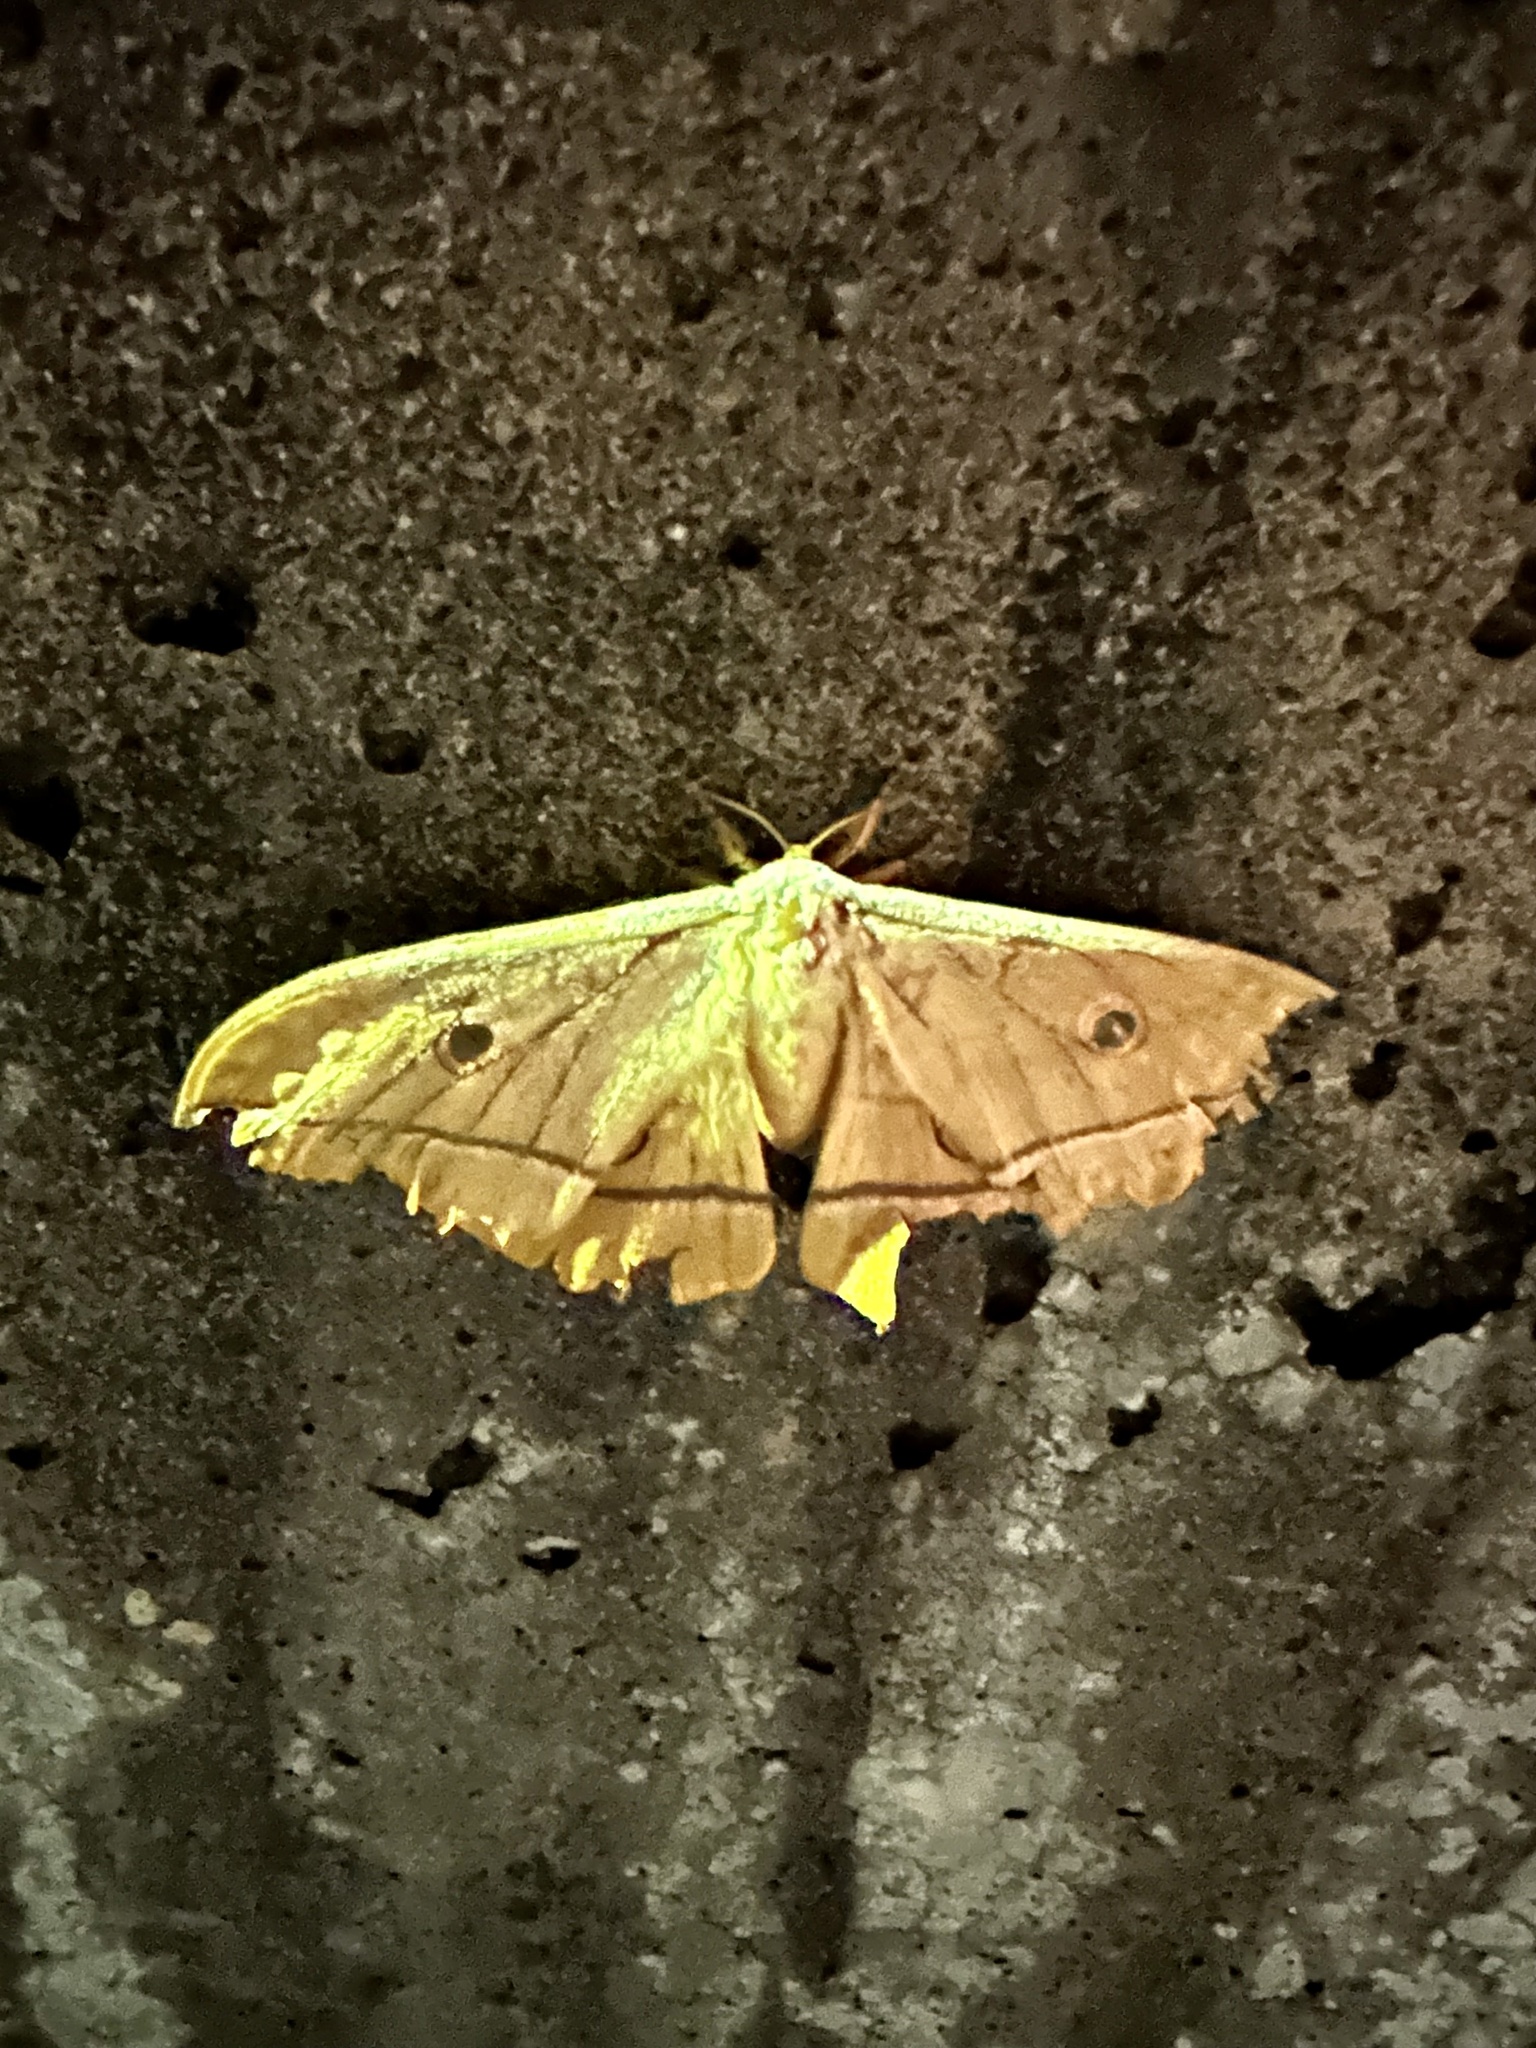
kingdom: Animalia
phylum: Arthropoda
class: Insecta
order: Lepidoptera
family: Saturniidae
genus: Antheraea
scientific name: Antheraea yamamai
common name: Japanese oak silk moth
